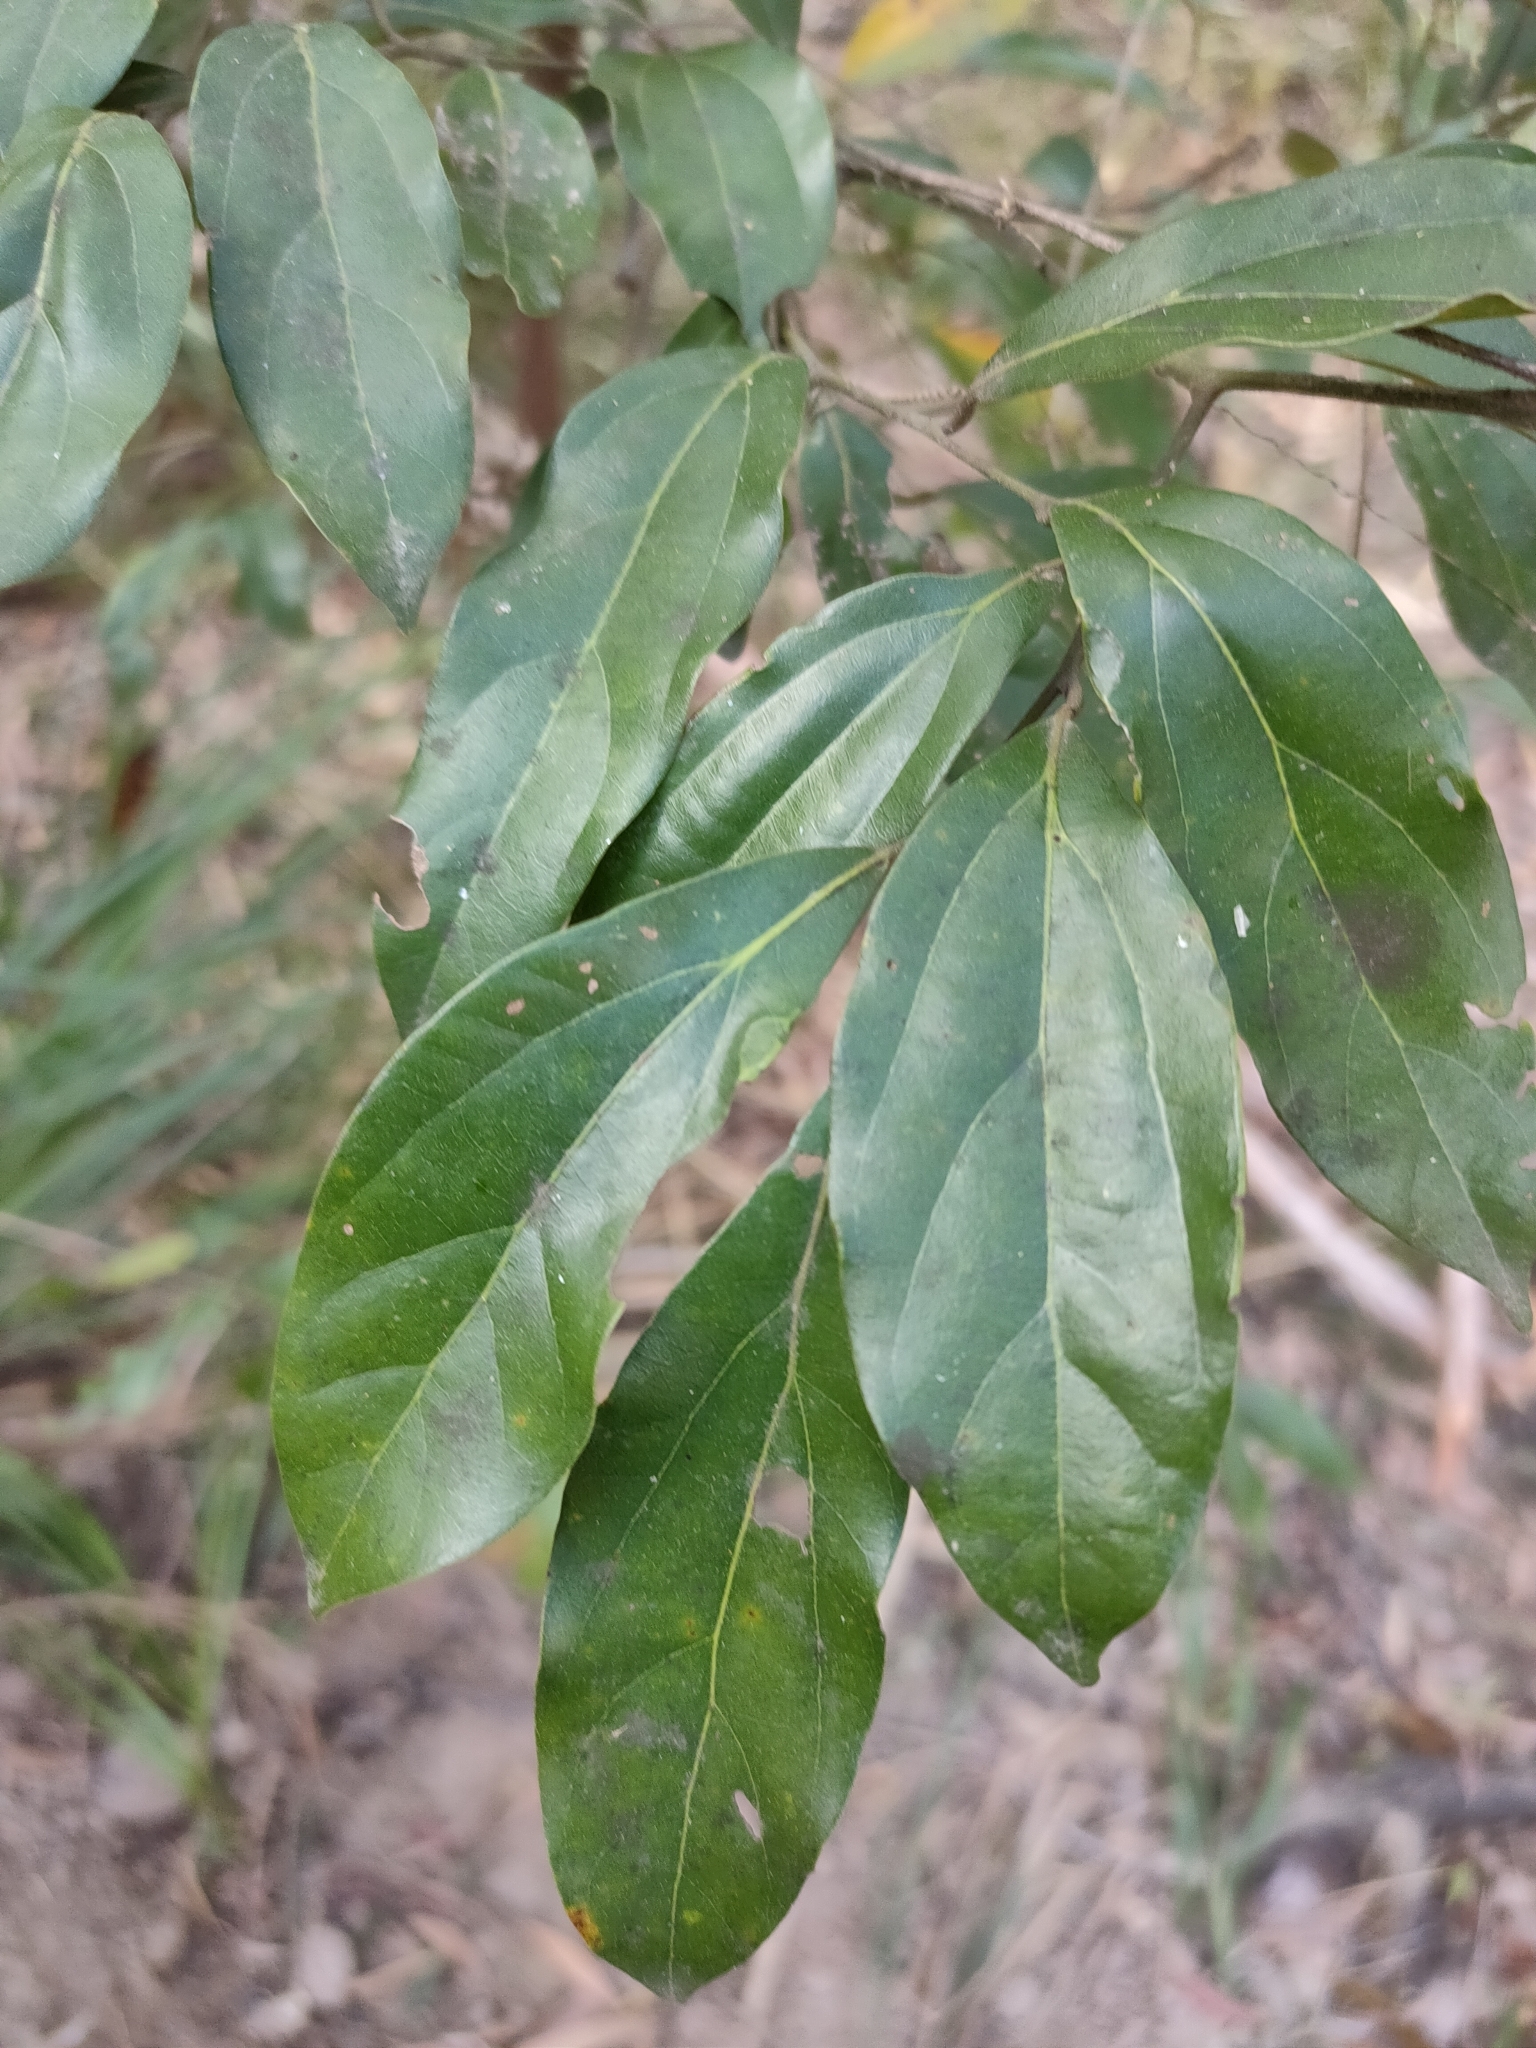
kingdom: Plantae
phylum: Tracheophyta
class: Magnoliopsida
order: Laurales
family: Lauraceae
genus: Cryptocarya
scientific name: Cryptocarya triplinervis
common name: Three-vein cryptocarya
